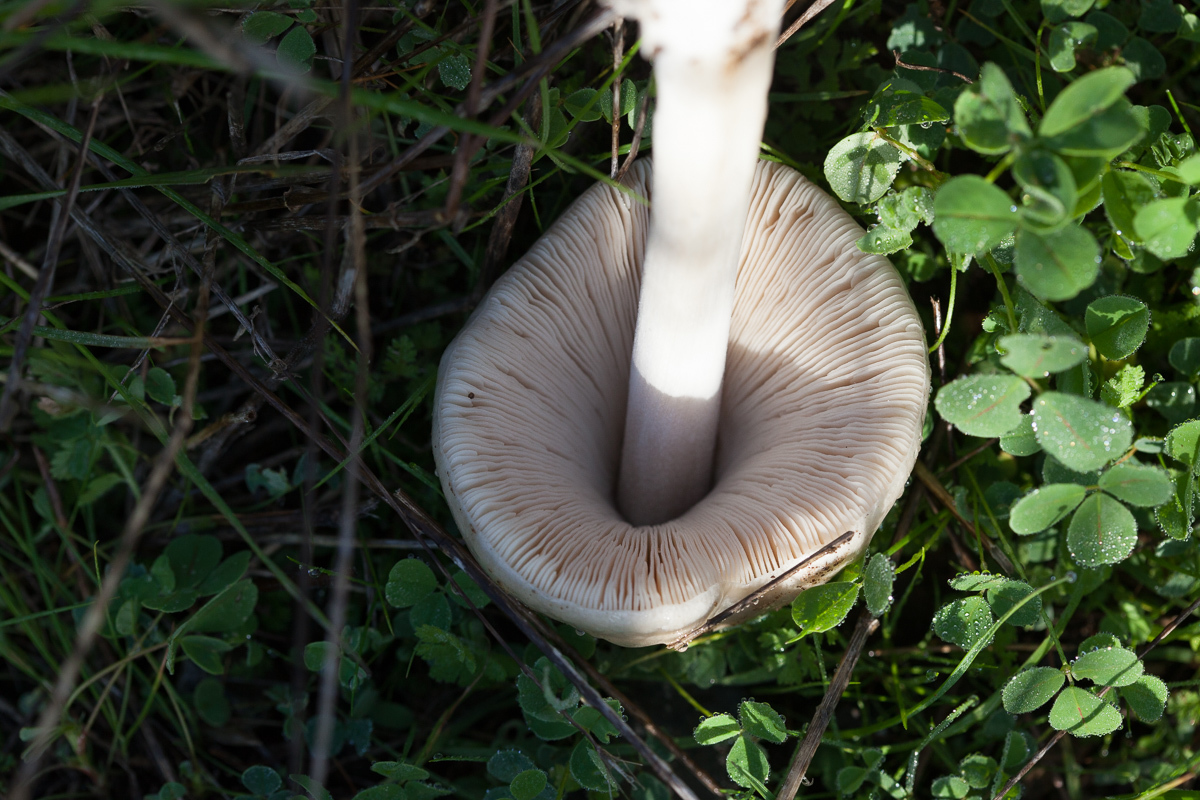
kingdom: Fungi
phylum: Basidiomycota
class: Agaricomycetes
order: Agaricales
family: Pluteaceae
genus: Volvopluteus
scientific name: Volvopluteus gloiocephalus
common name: Stubble rosegill
